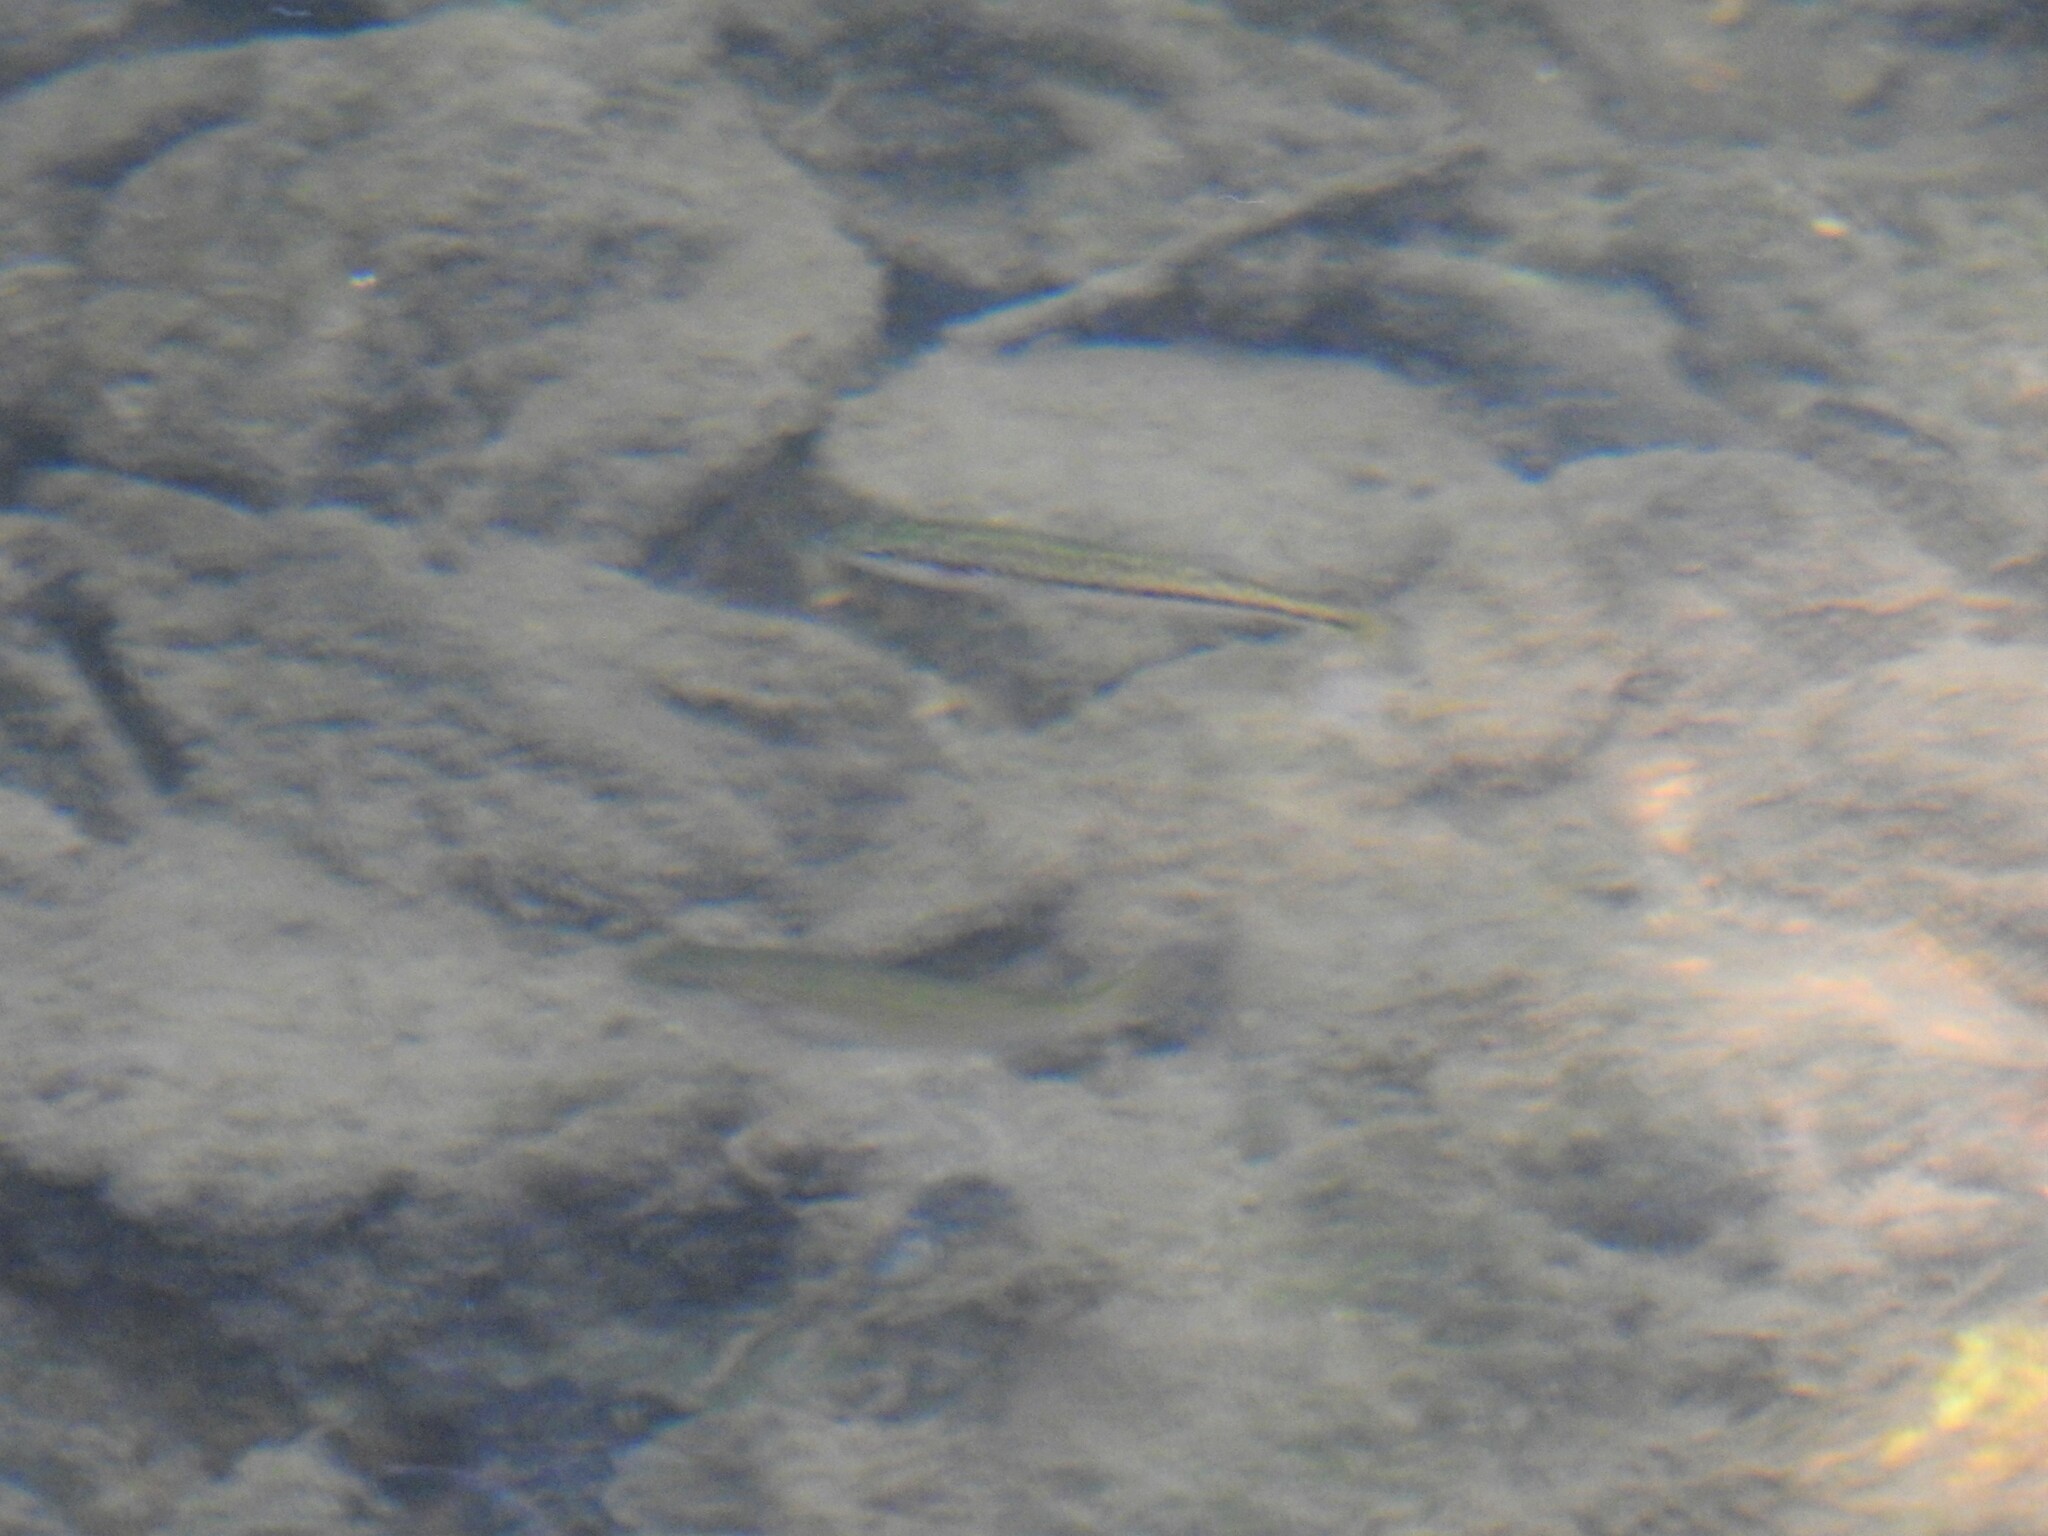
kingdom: Animalia
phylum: Chordata
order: Perciformes
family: Centrarchidae
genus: Micropterus
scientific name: Micropterus
